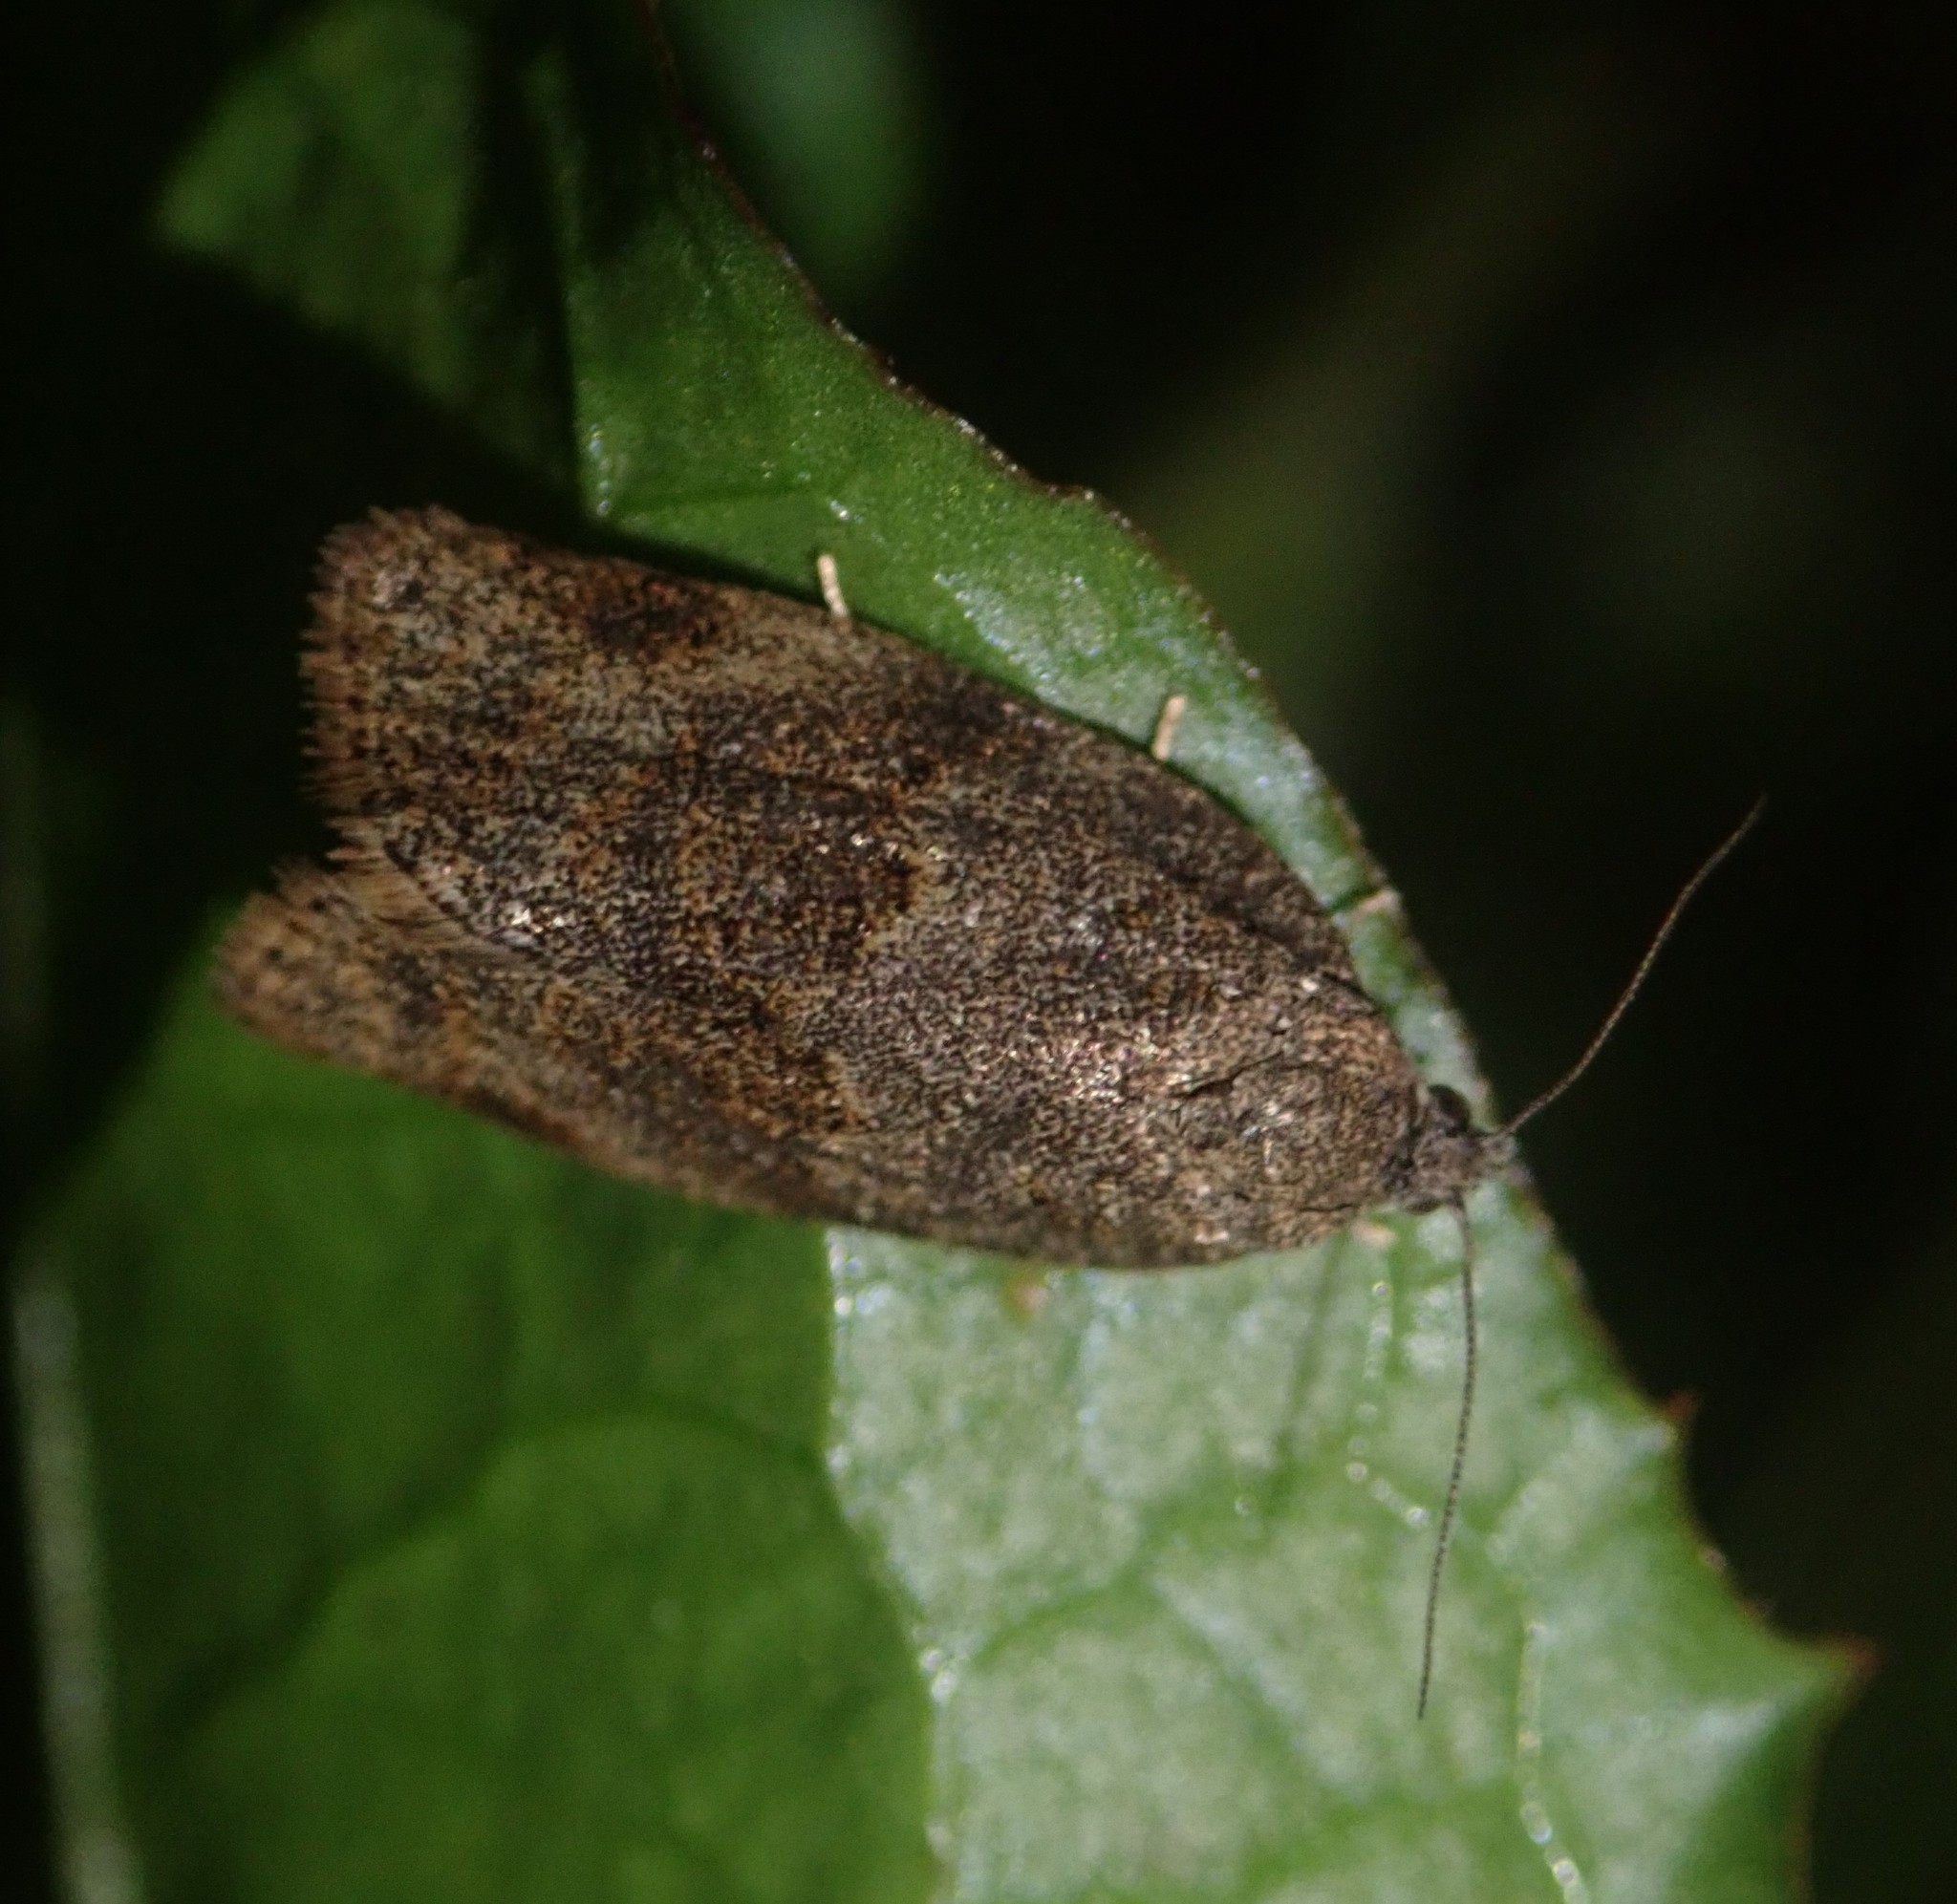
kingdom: Animalia
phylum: Arthropoda
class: Insecta
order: Lepidoptera
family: Tortricidae
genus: Syndemis
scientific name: Syndemis musculana
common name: Dark-barred twist
